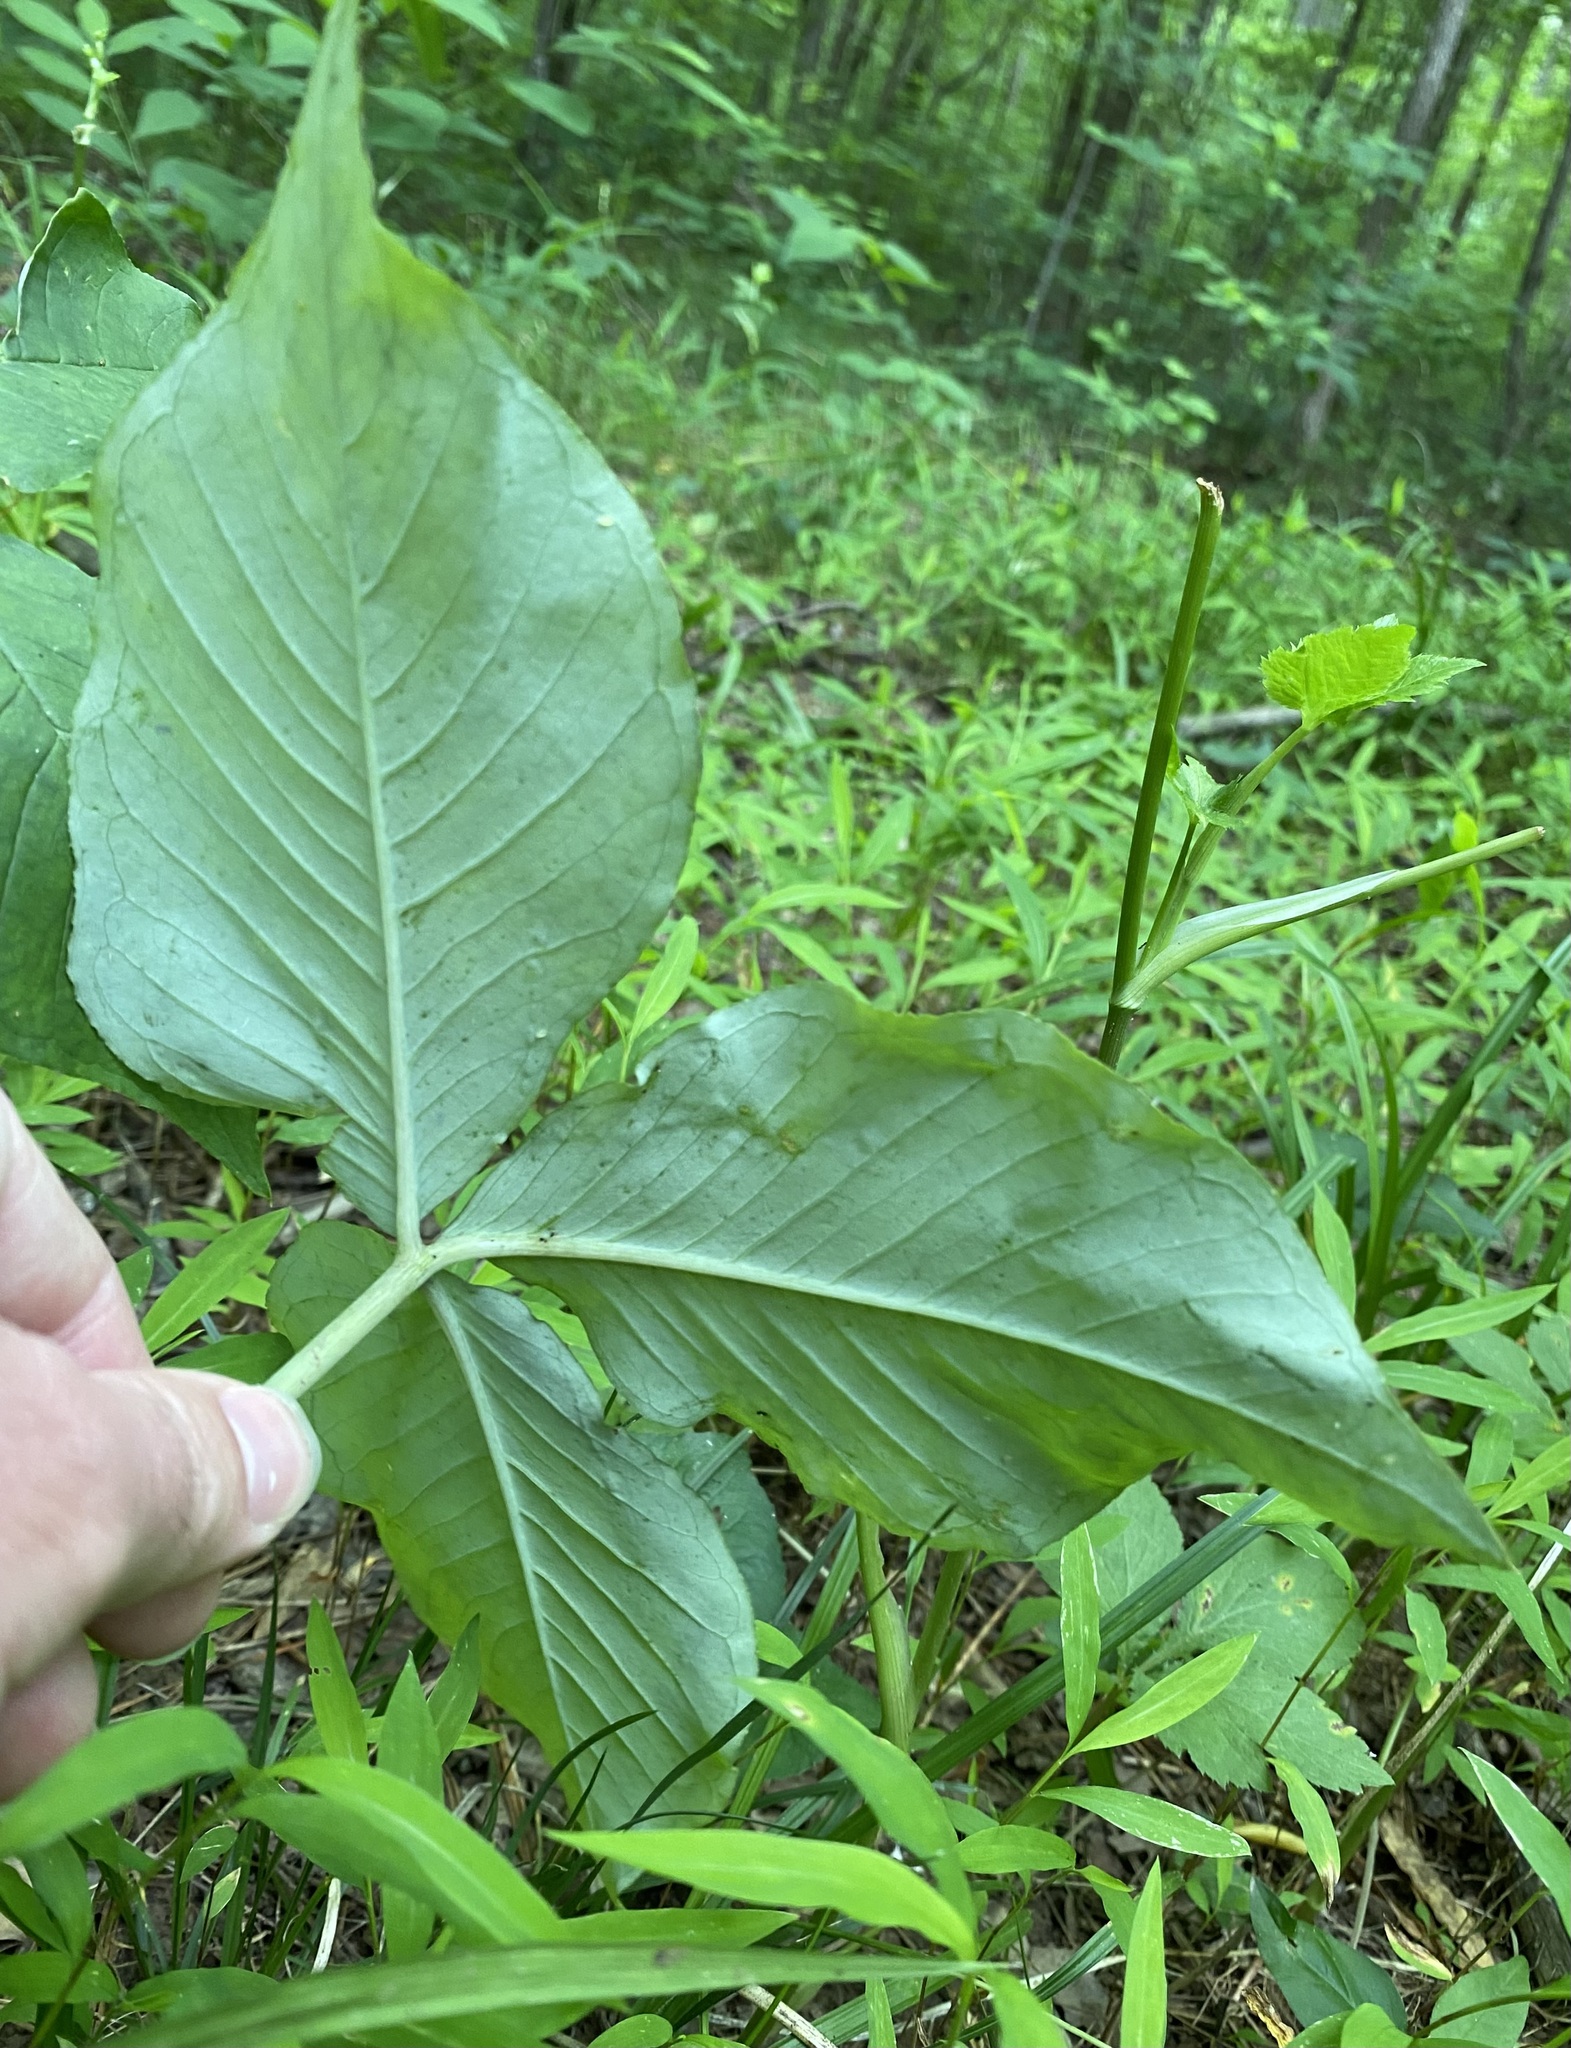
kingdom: Plantae
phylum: Tracheophyta
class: Liliopsida
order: Alismatales
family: Araceae
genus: Arisaema
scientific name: Arisaema triphyllum
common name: Jack-in-the-pulpit
